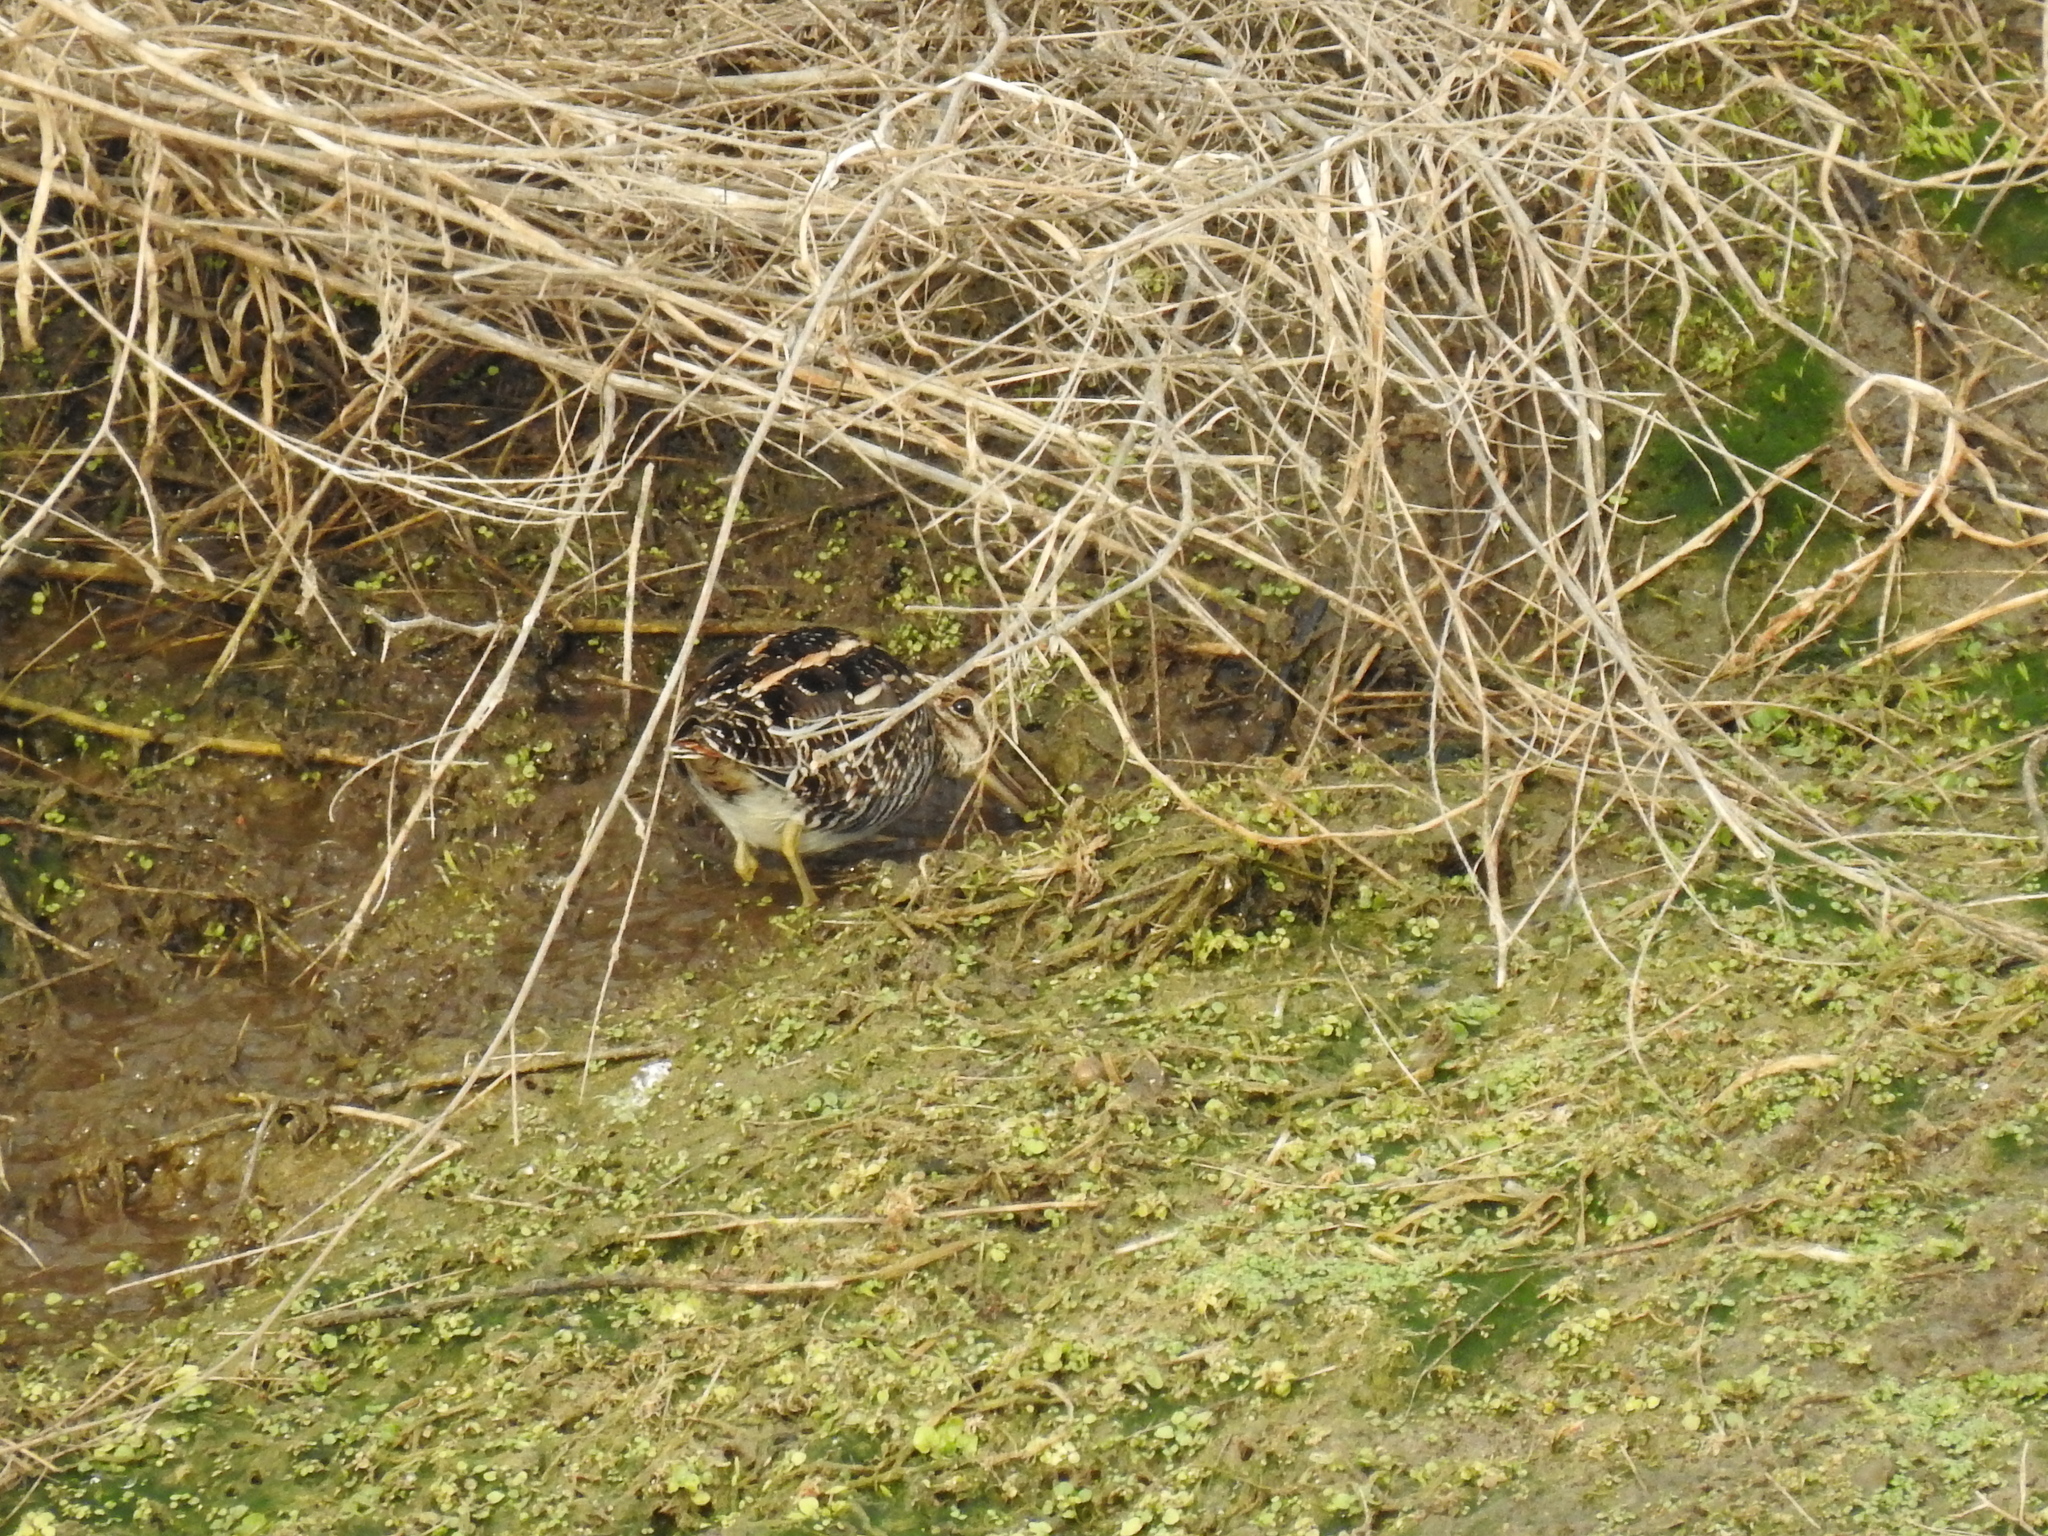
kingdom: Animalia
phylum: Chordata
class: Aves
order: Charadriiformes
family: Scolopacidae
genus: Gallinago
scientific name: Gallinago delicata
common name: Wilson's snipe
